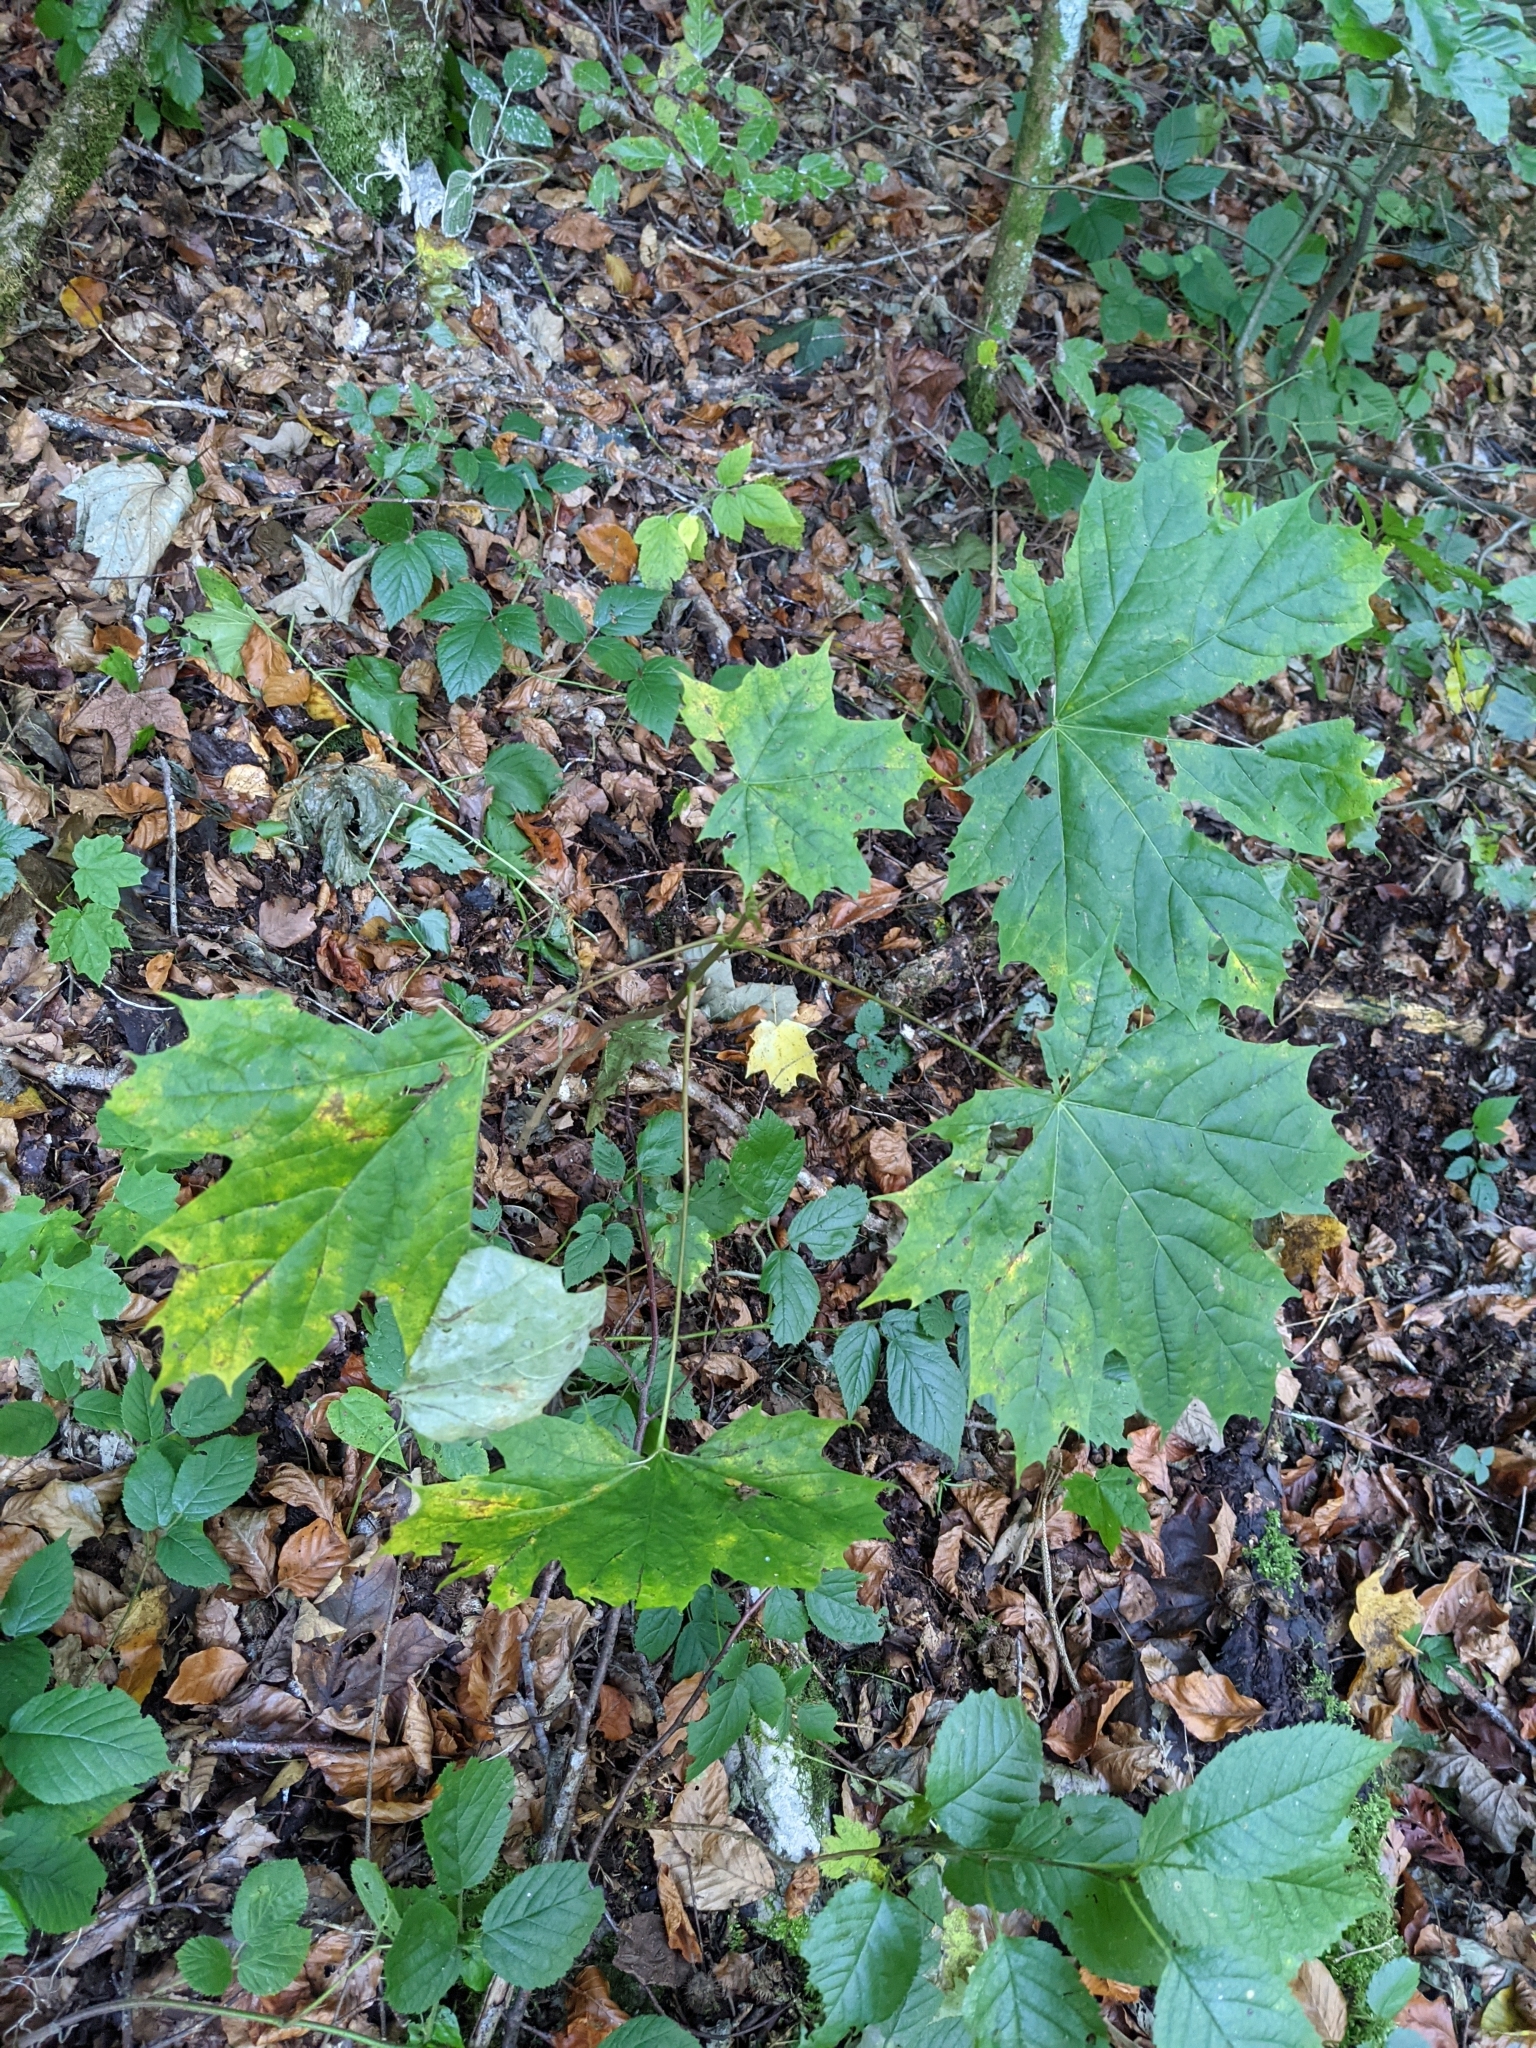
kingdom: Plantae
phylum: Tracheophyta
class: Magnoliopsida
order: Sapindales
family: Sapindaceae
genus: Acer
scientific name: Acer platanoides
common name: Norway maple
